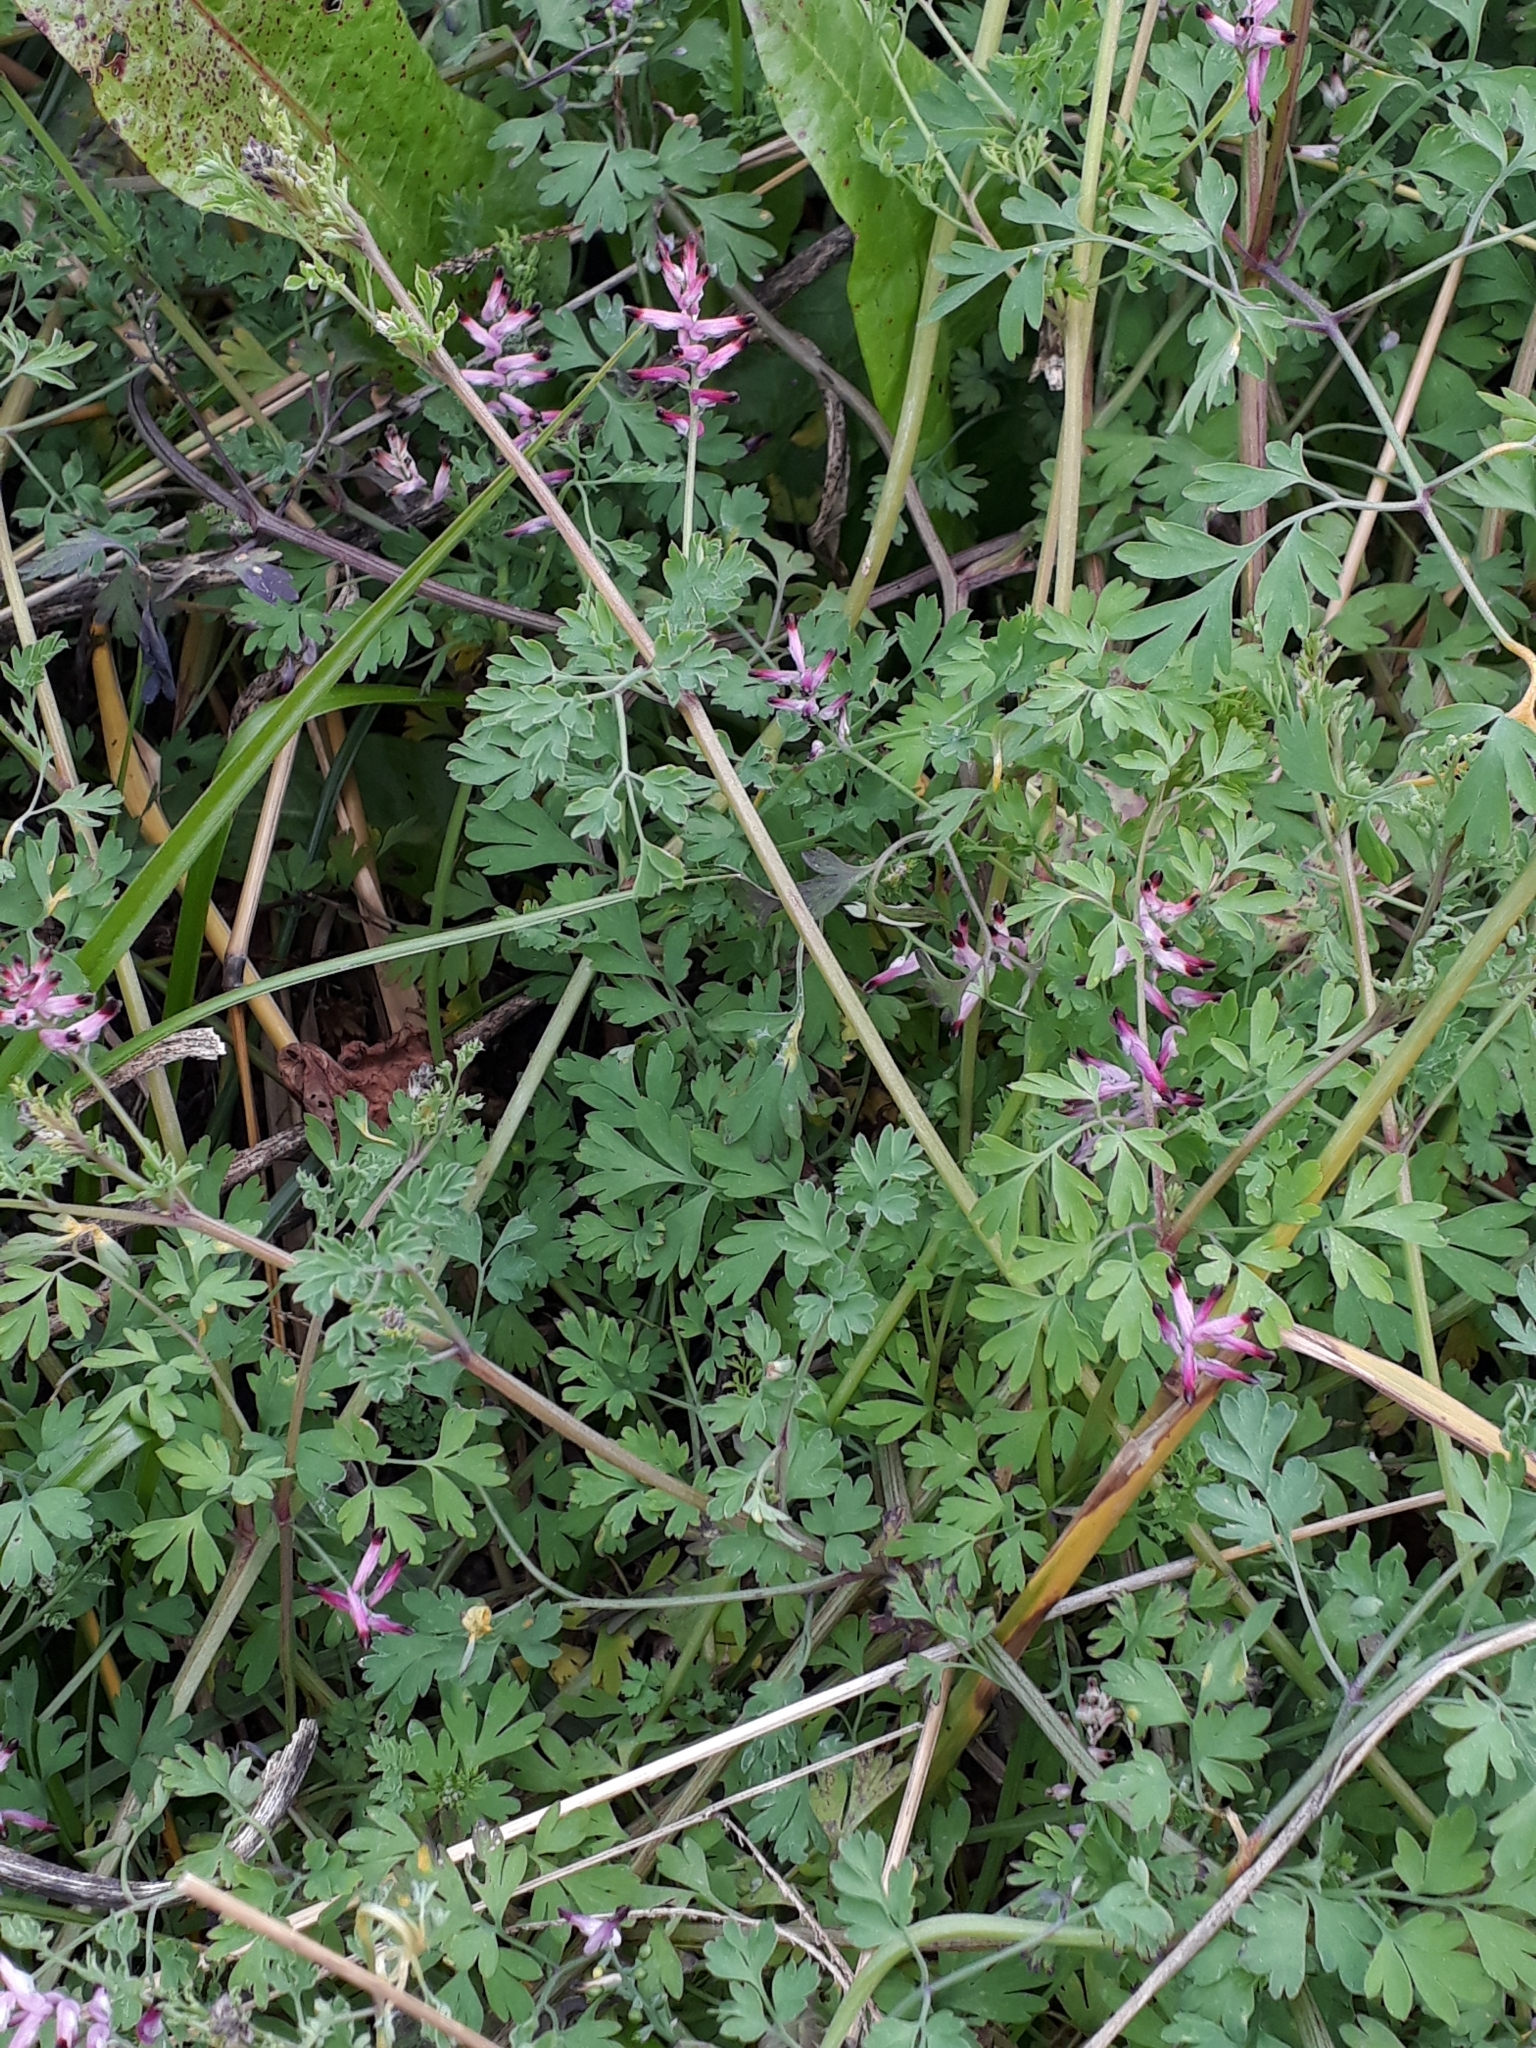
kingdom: Plantae
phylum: Tracheophyta
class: Magnoliopsida
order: Ranunculales
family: Papaveraceae
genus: Fumaria
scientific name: Fumaria muralis
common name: Common ramping-fumitory
